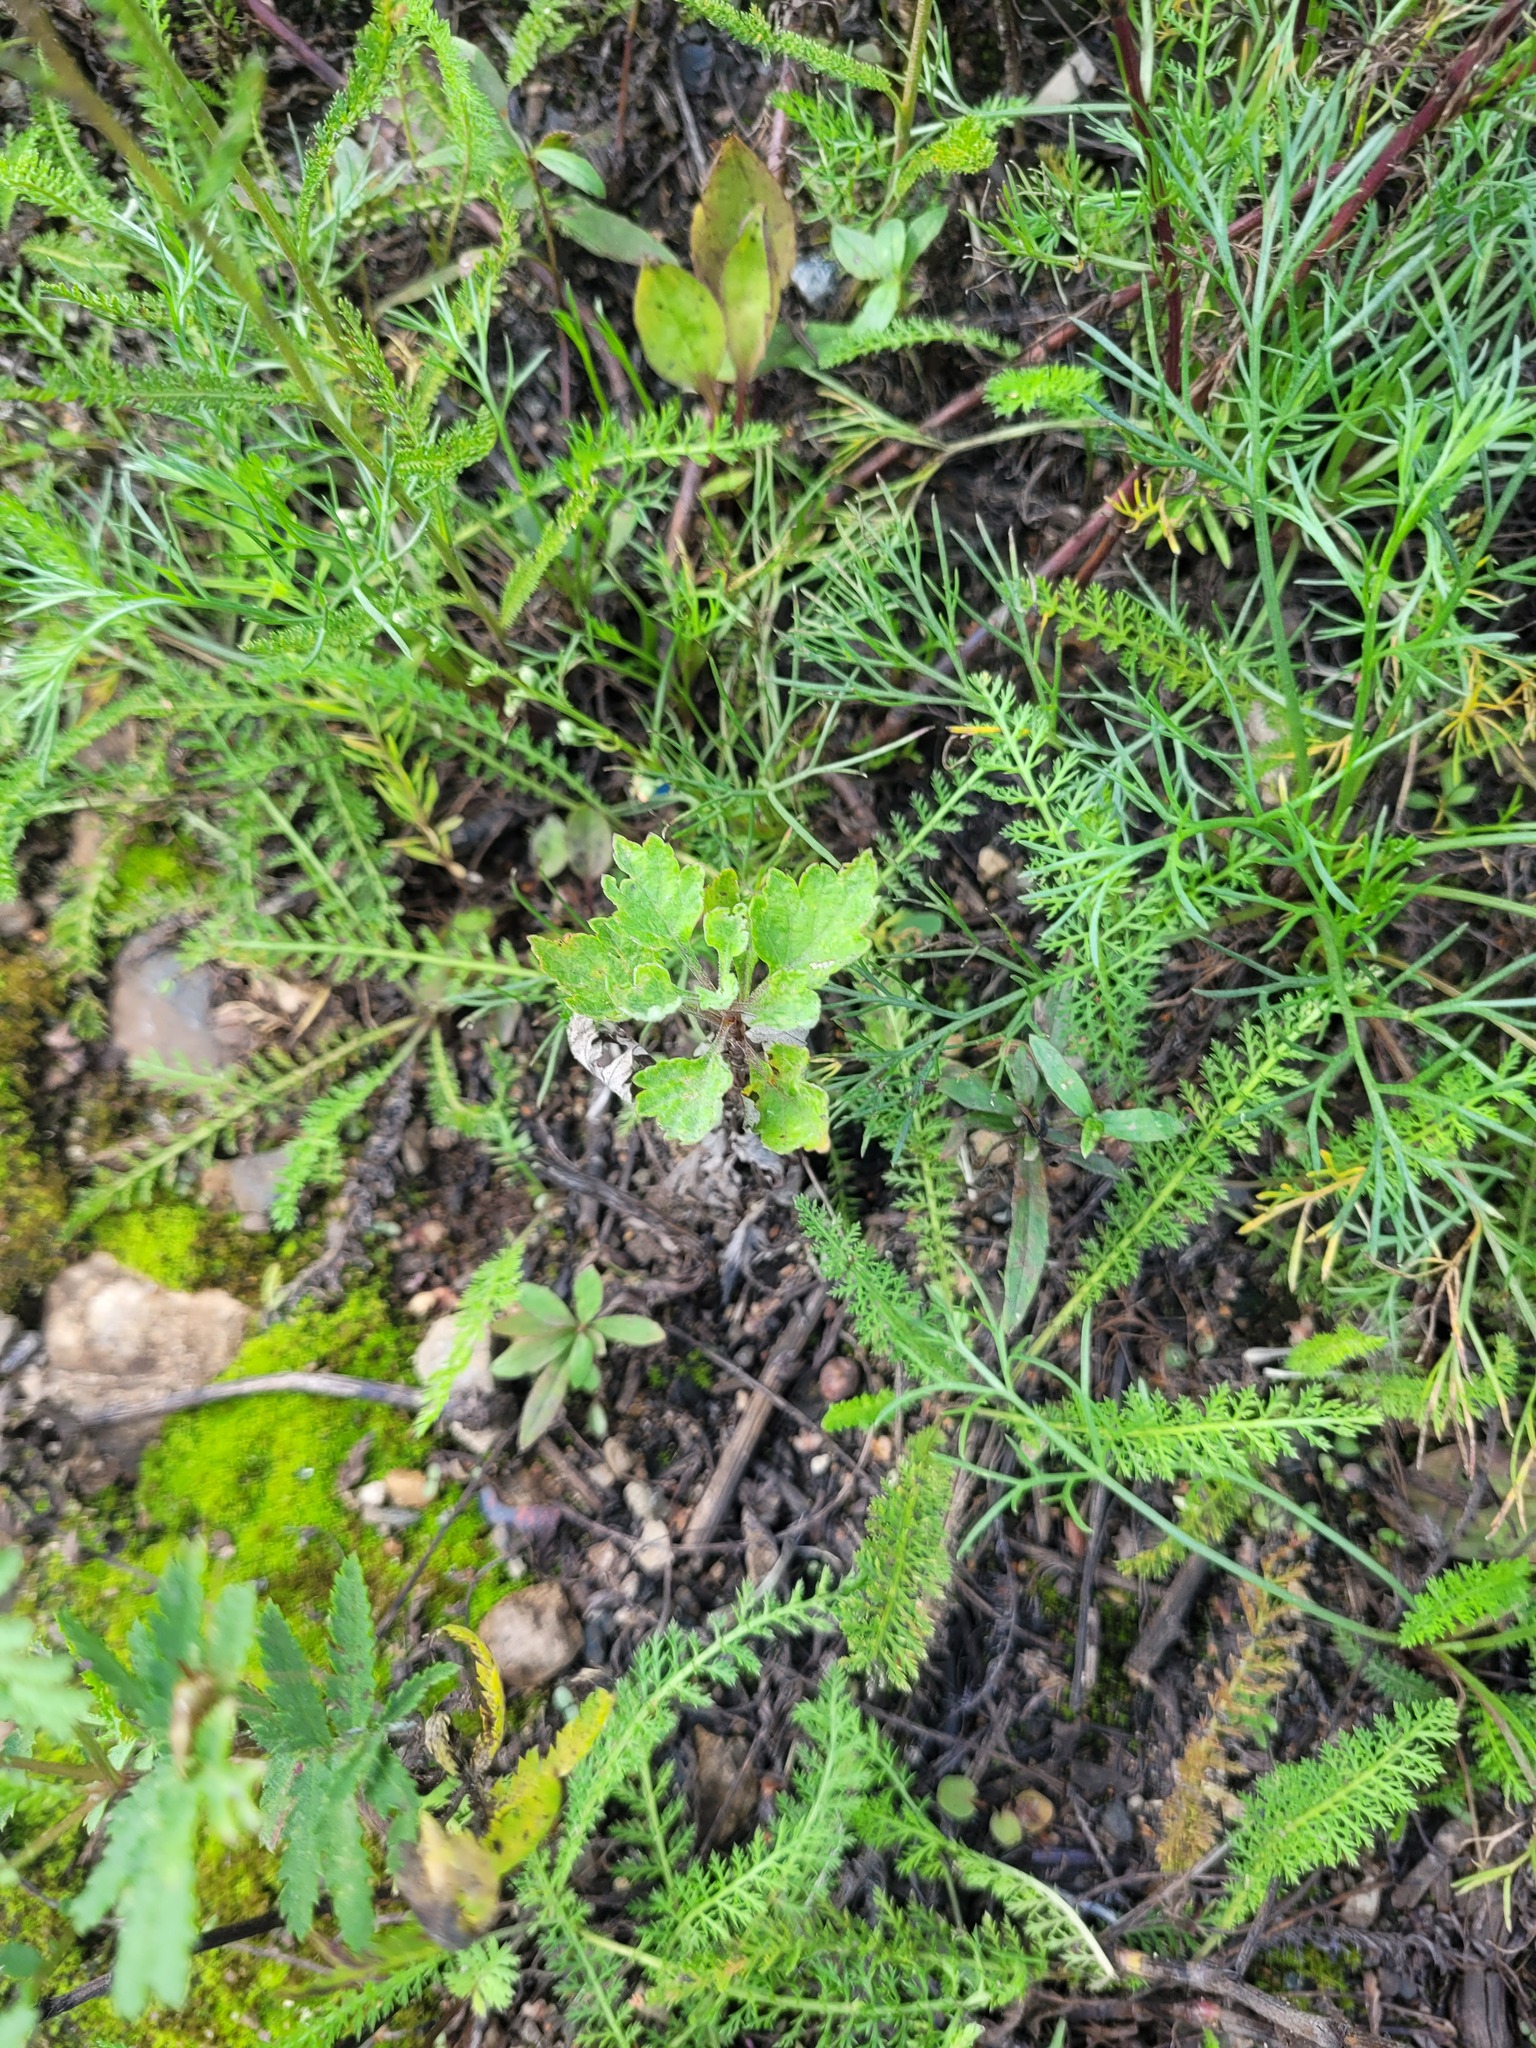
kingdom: Plantae
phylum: Tracheophyta
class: Magnoliopsida
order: Asterales
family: Asteraceae
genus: Artemisia
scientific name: Artemisia vulgaris
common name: Mugwort
